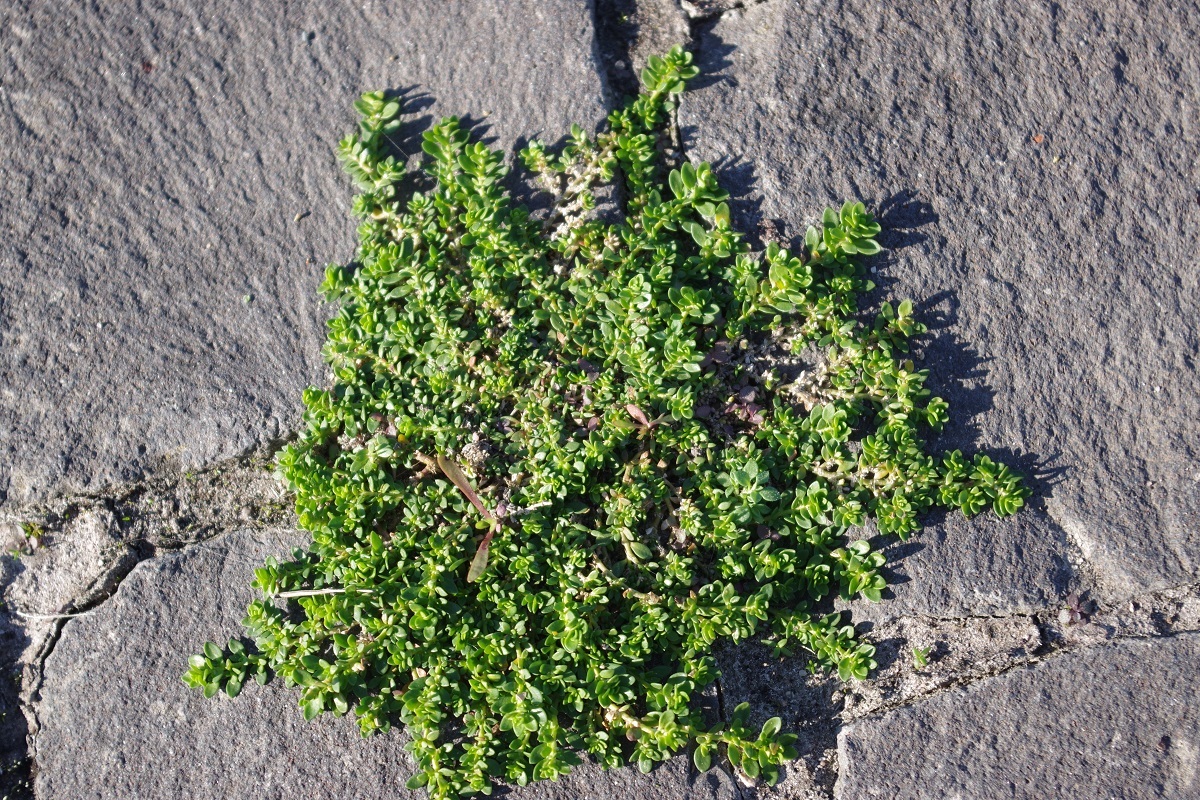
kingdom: Plantae
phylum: Tracheophyta
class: Magnoliopsida
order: Caryophyllales
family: Caryophyllaceae
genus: Herniaria
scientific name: Herniaria glabra
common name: Smooth rupturewort
